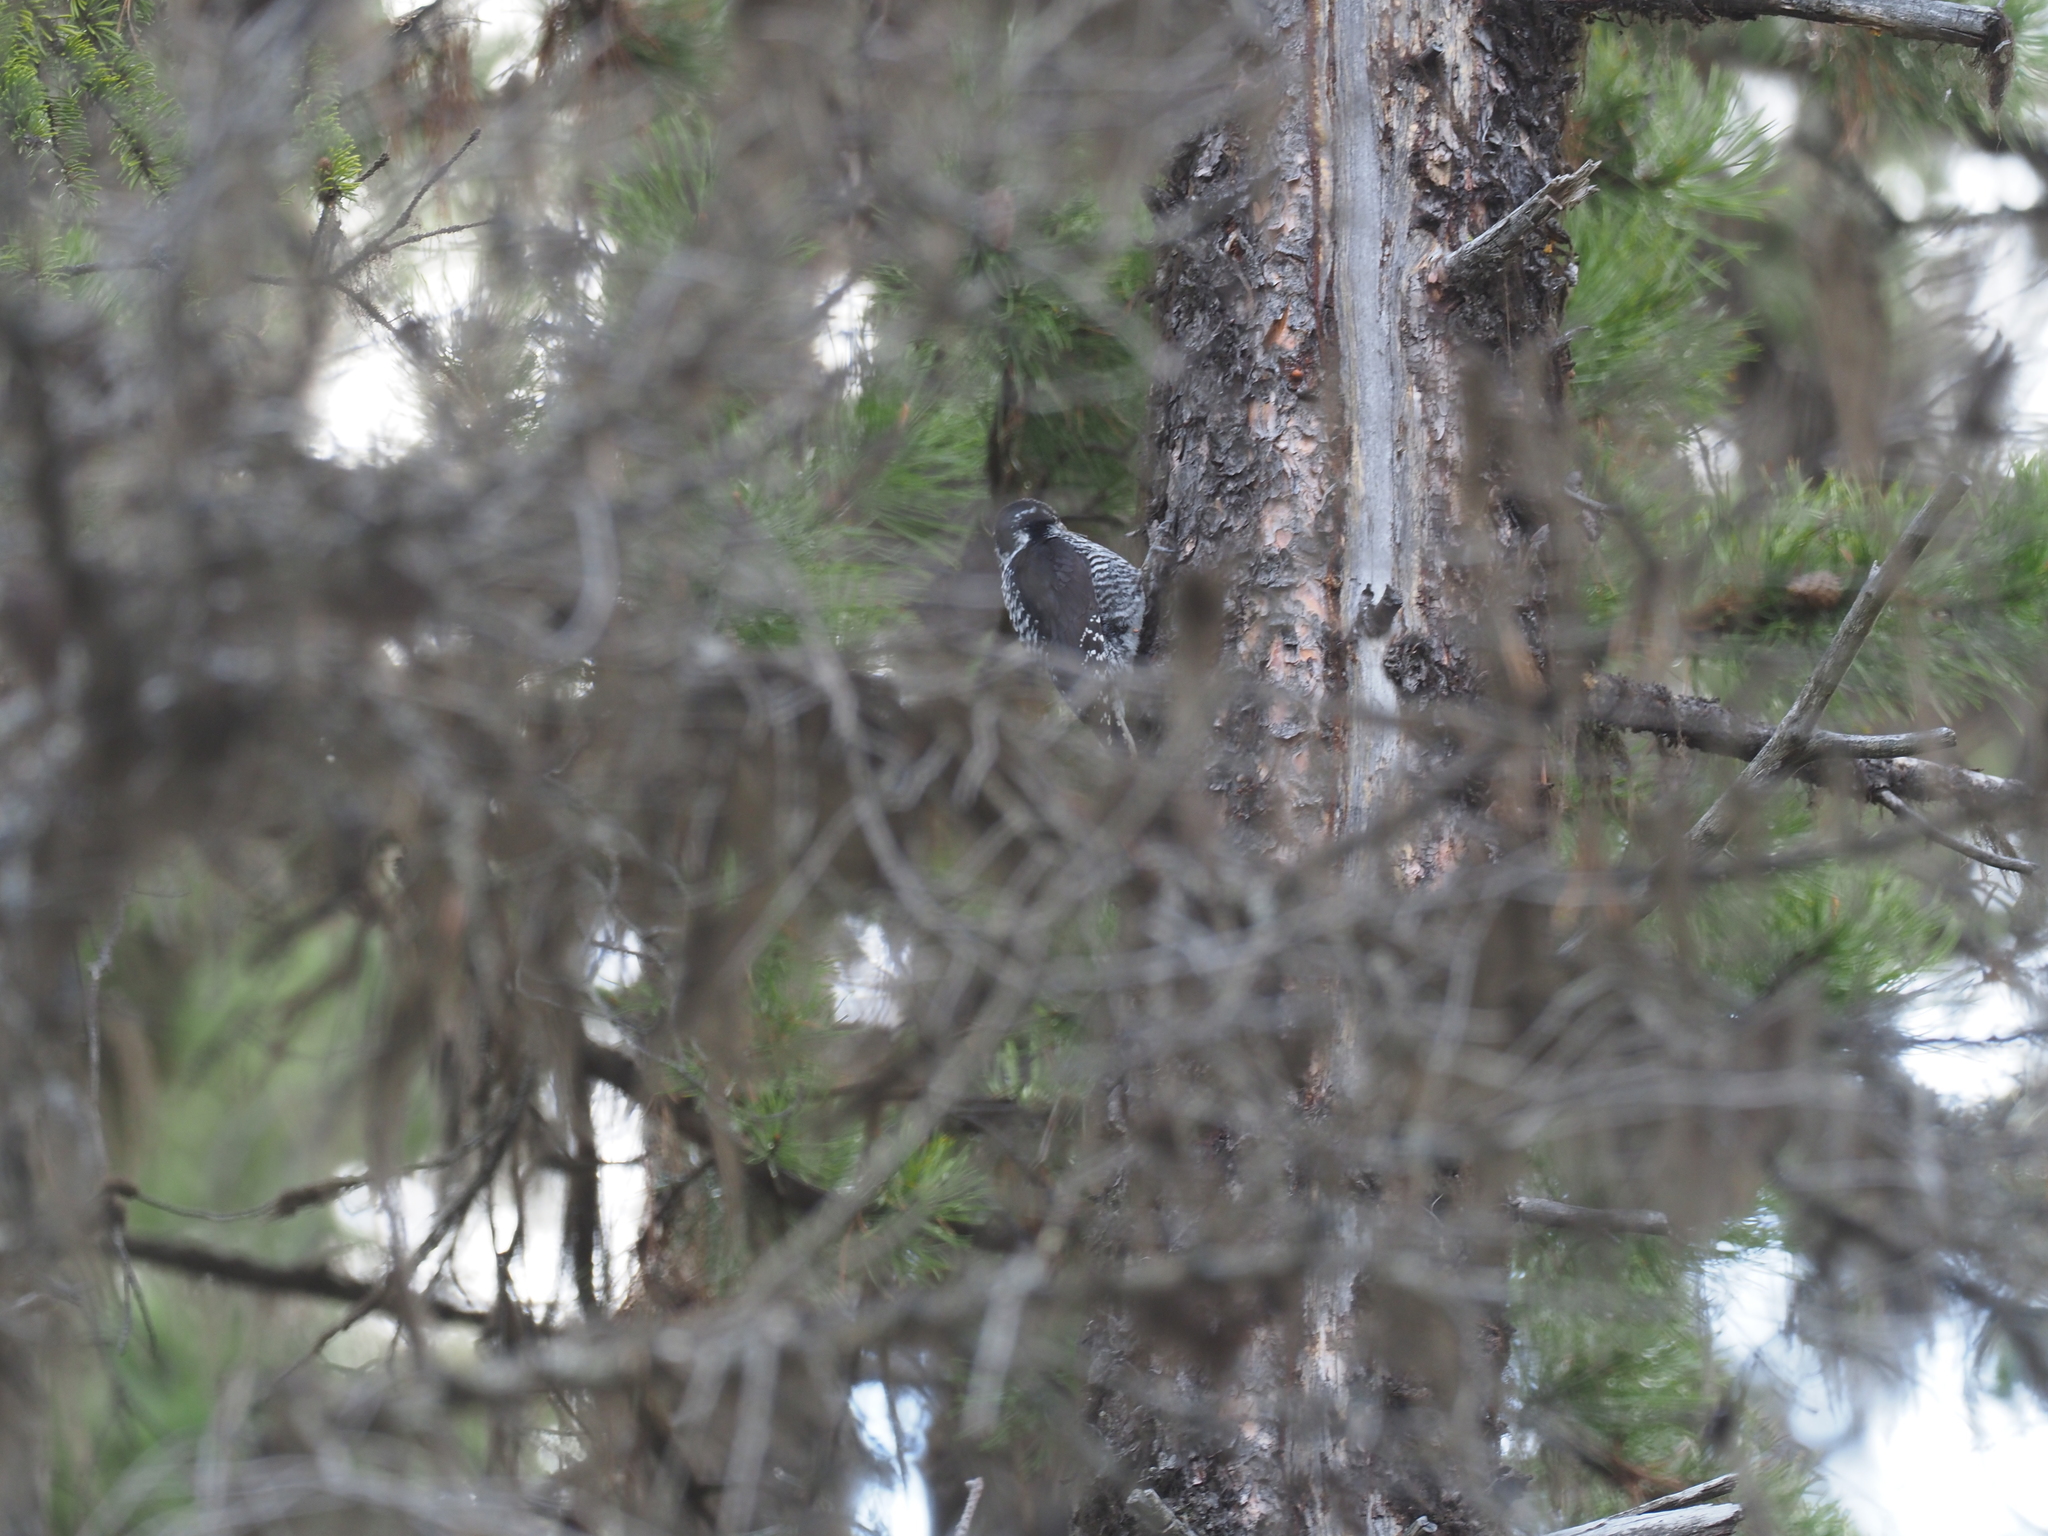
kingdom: Animalia
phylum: Chordata
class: Aves
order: Piciformes
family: Picidae
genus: Picoides
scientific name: Picoides dorsalis
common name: American three-toed woodpecker
